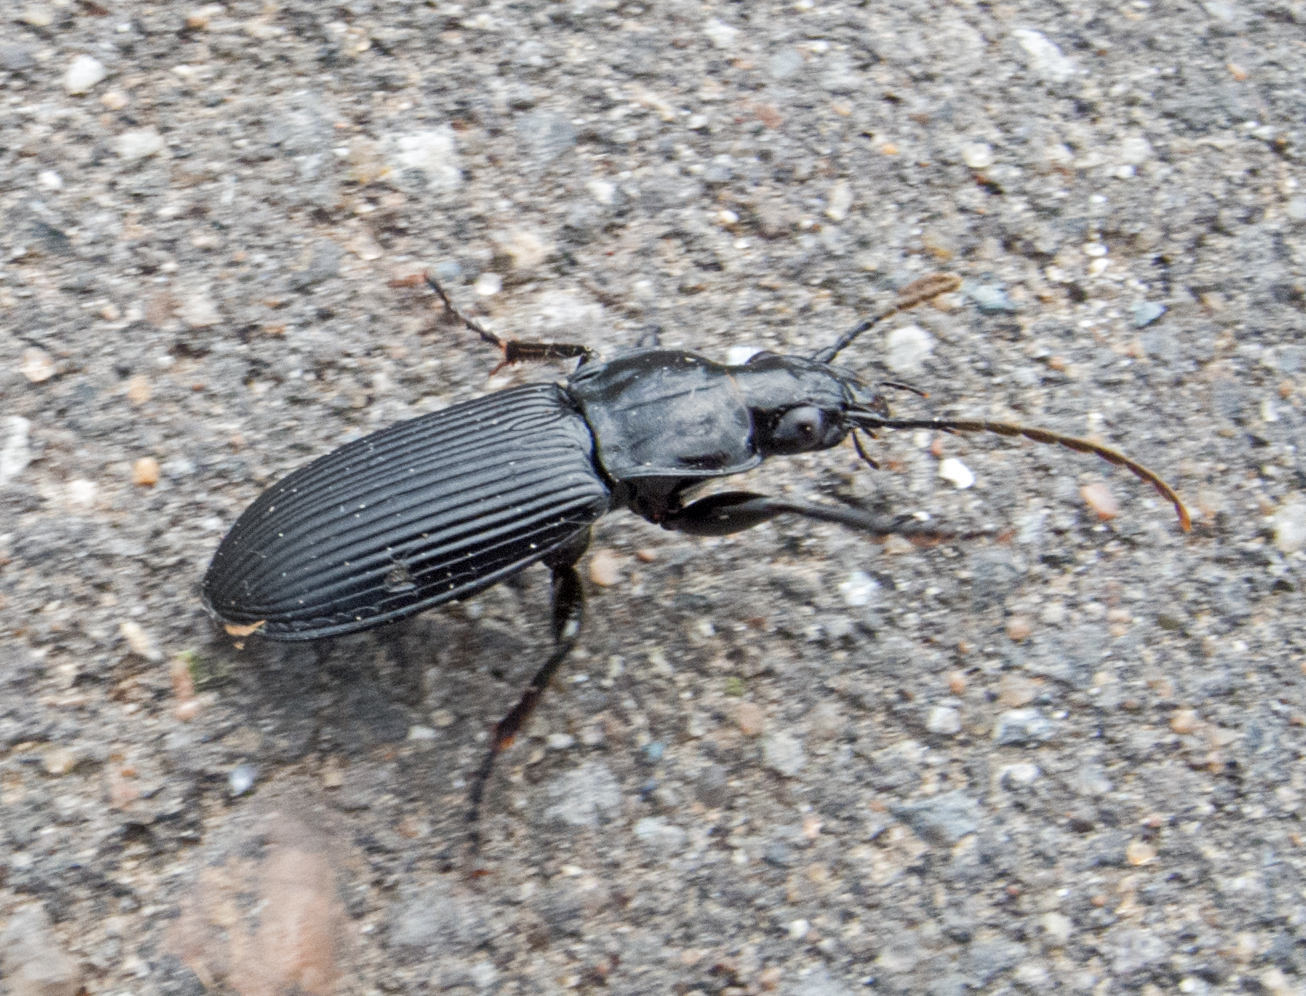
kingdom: Animalia
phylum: Arthropoda
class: Insecta
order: Coleoptera
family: Carabidae
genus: Pterostichus
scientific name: Pterostichus niger
